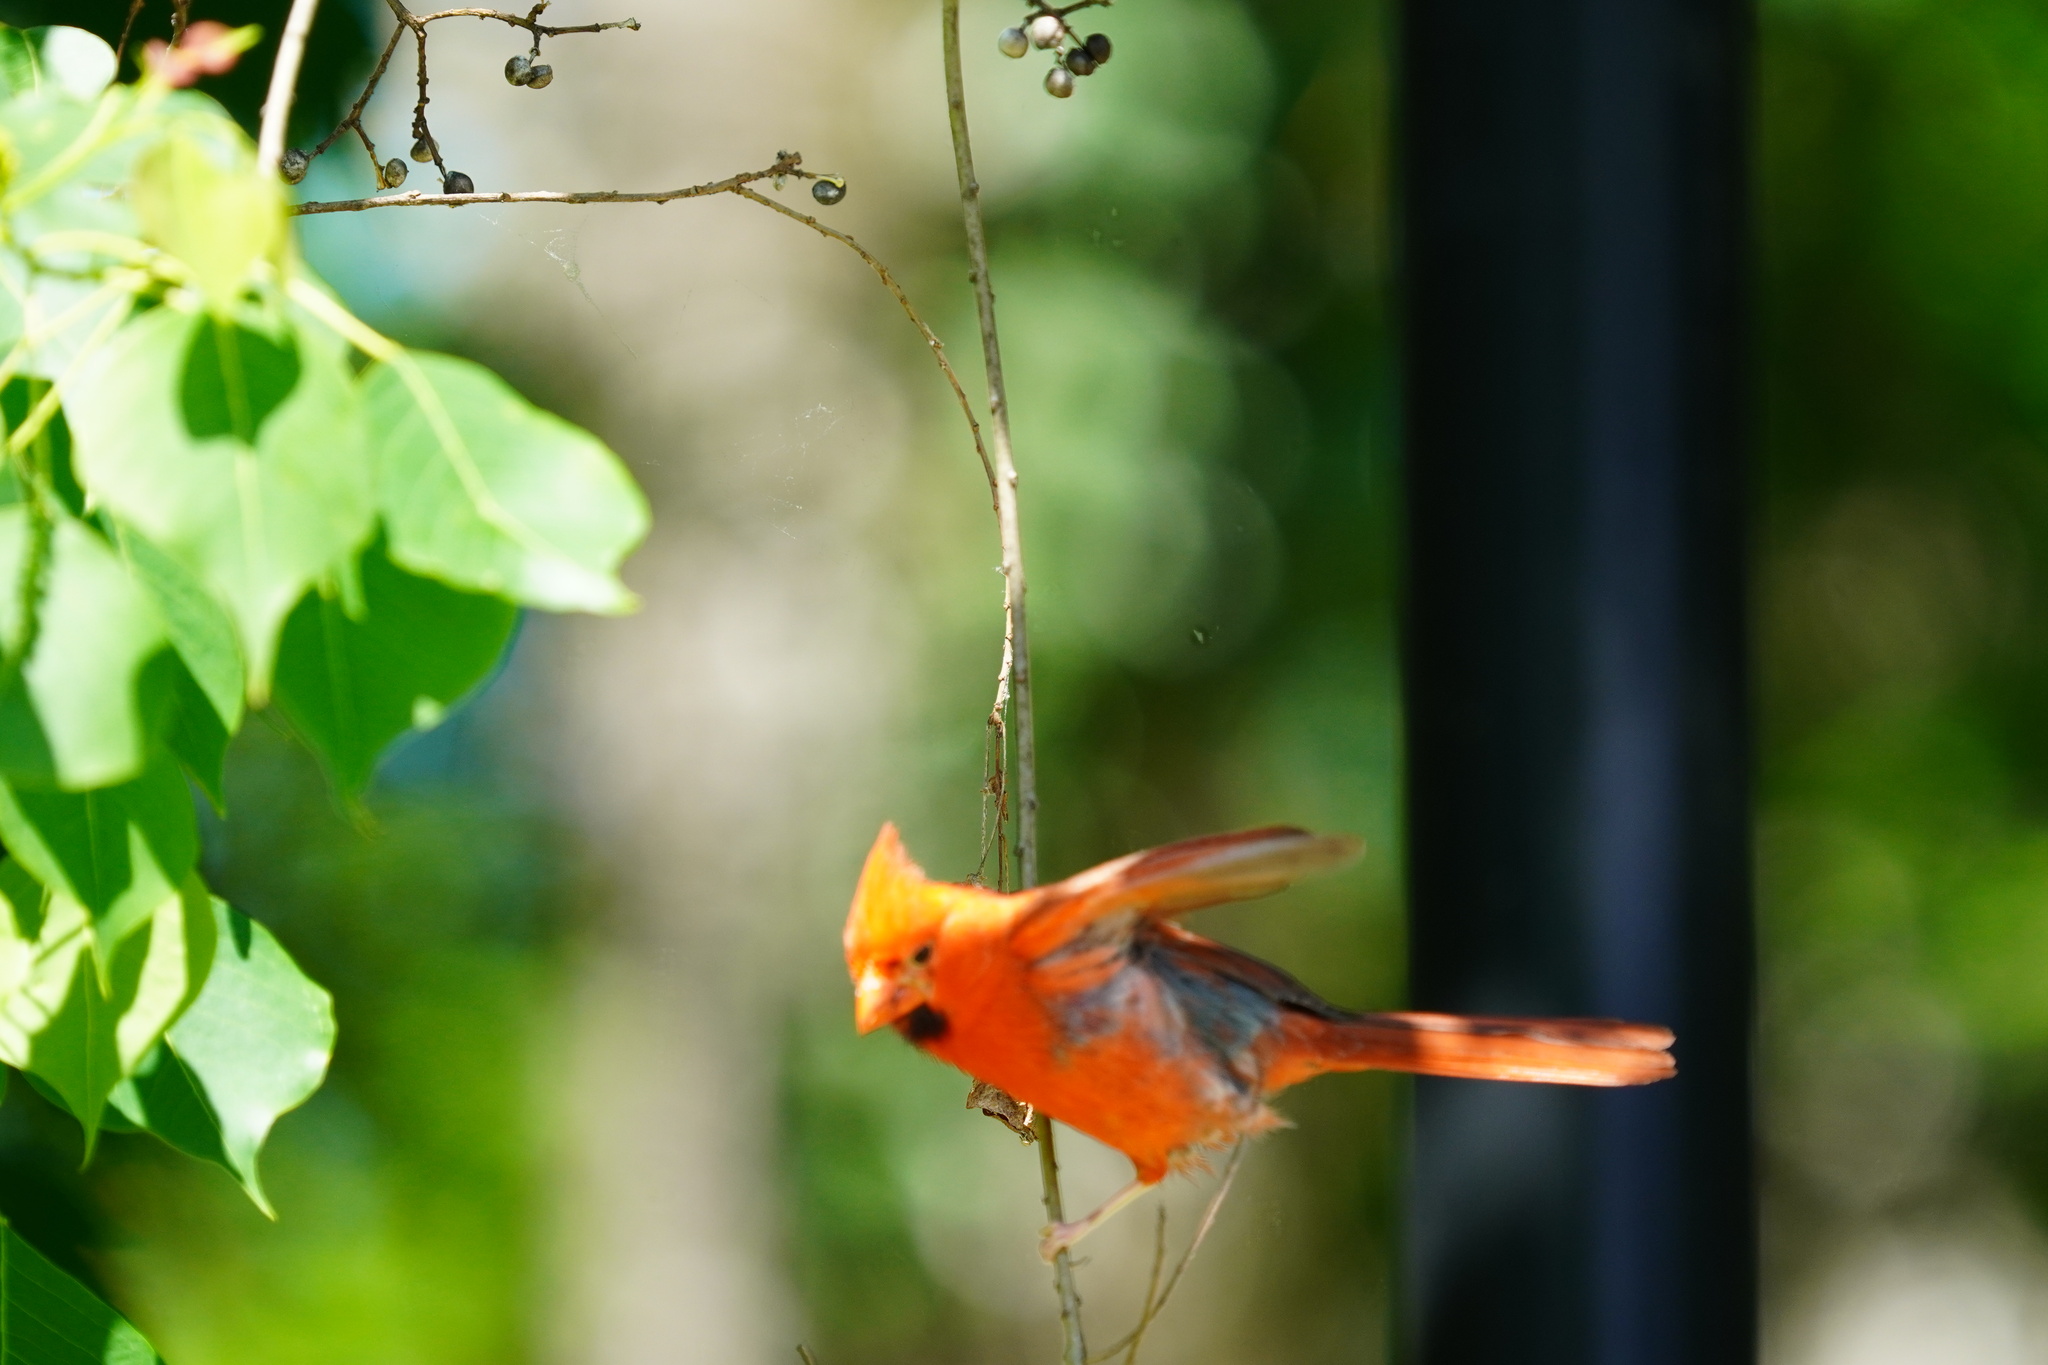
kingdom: Animalia
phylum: Chordata
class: Aves
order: Passeriformes
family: Cardinalidae
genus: Cardinalis
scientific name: Cardinalis cardinalis
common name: Northern cardinal
